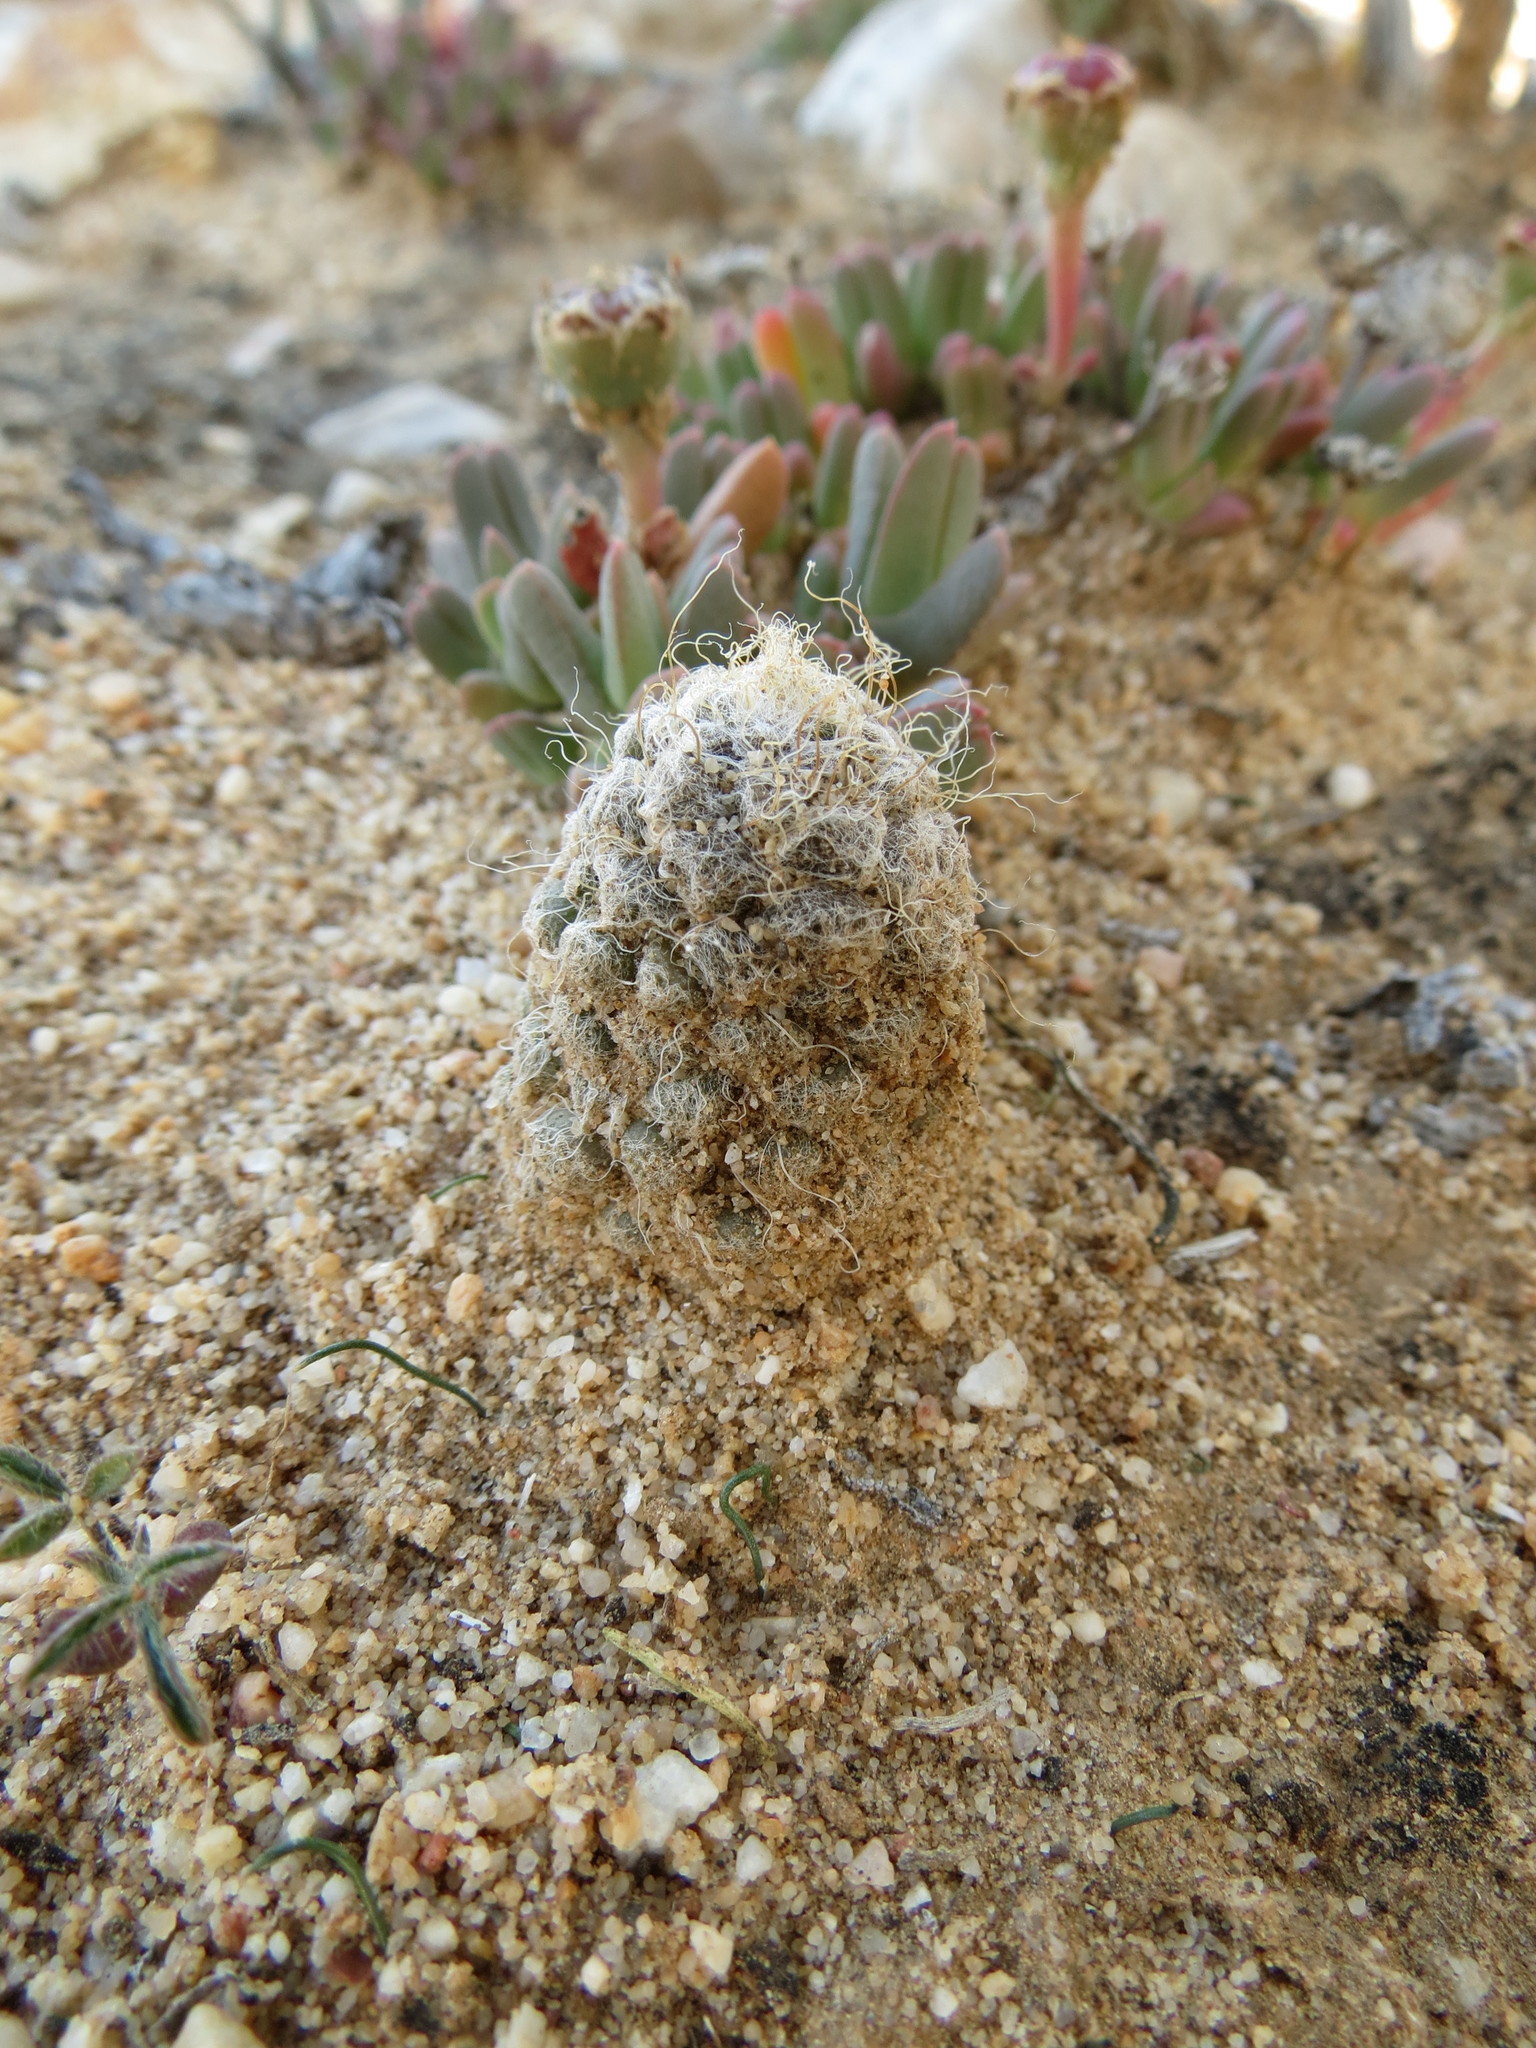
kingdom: Plantae
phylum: Tracheophyta
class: Magnoliopsida
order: Caryophyllales
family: Anacampserotaceae
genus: Anacampseros
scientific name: Anacampseros albidiflora
